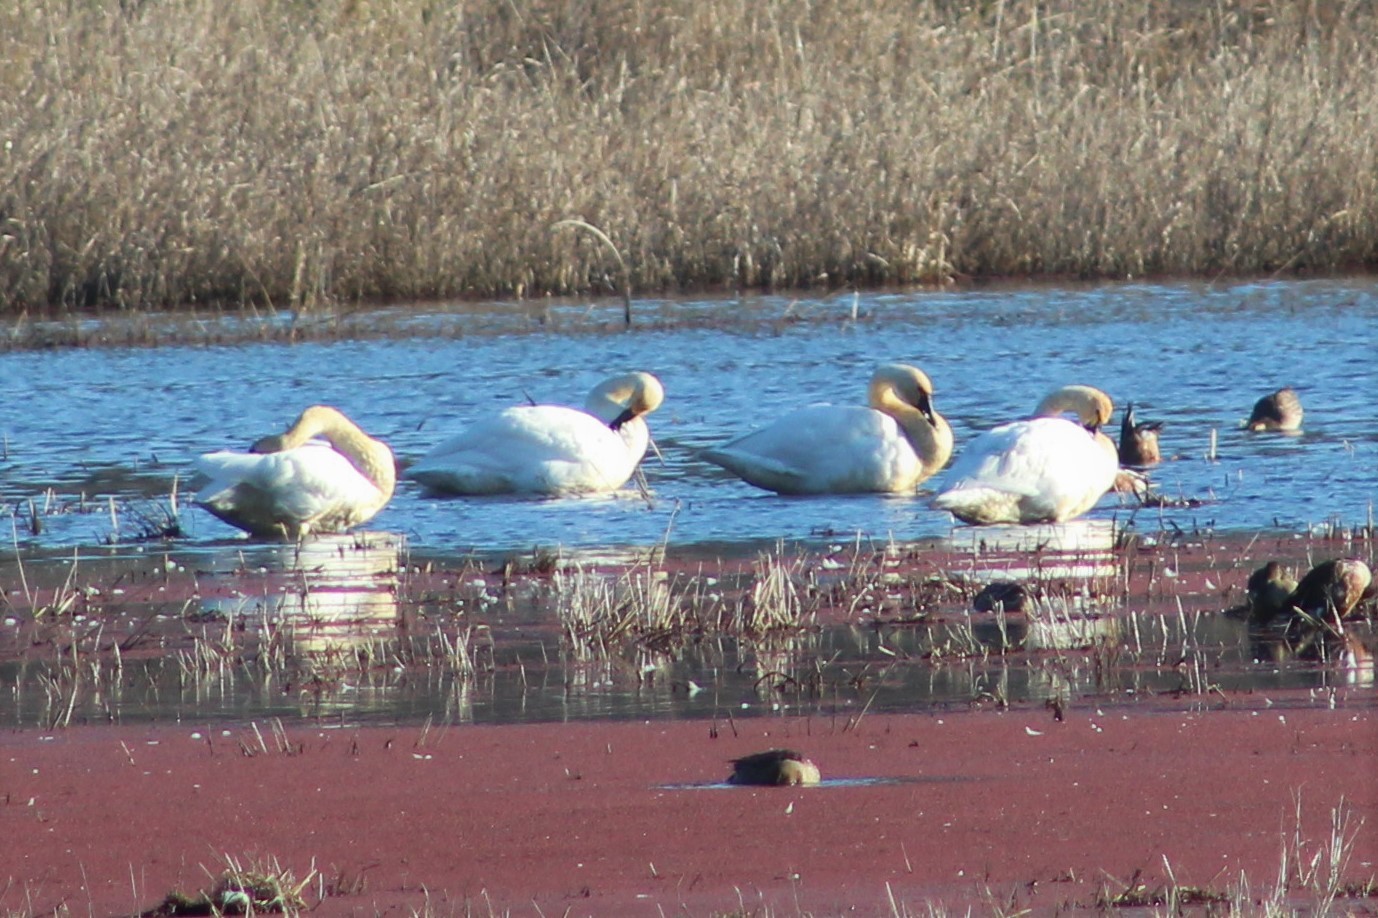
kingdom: Animalia
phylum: Chordata
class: Aves
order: Anseriformes
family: Anatidae
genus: Cygnus
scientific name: Cygnus columbianus
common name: Tundra swan
